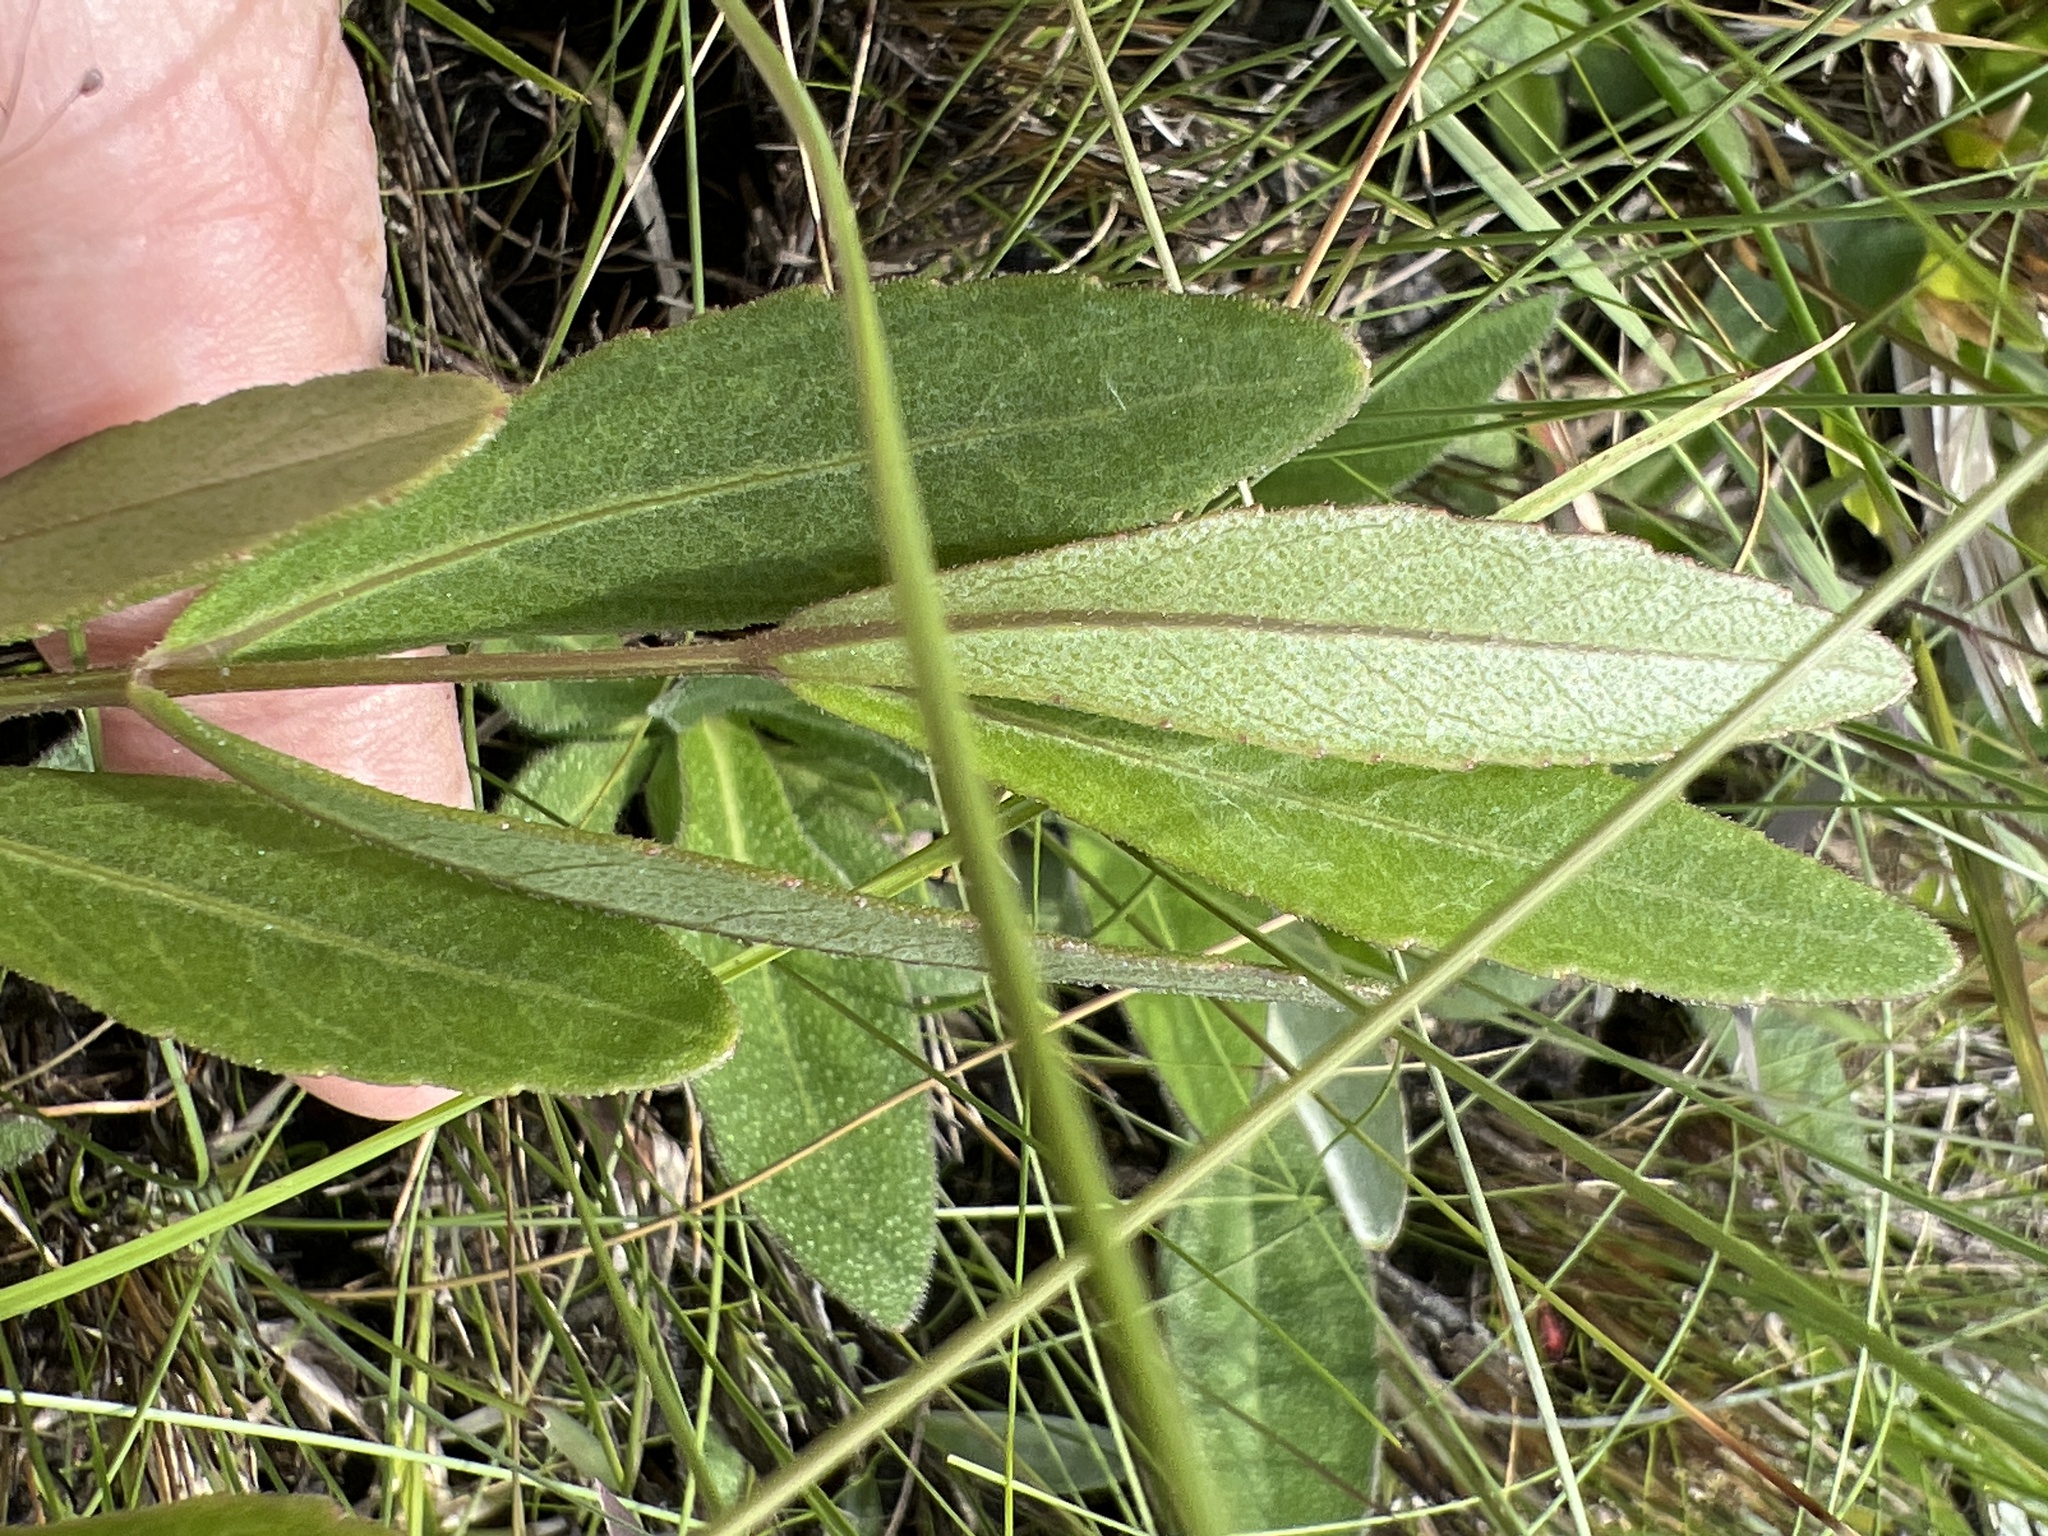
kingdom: Plantae
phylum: Tracheophyta
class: Magnoliopsida
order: Asterales
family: Asteraceae
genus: Verbesina
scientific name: Verbesina chapmanii
